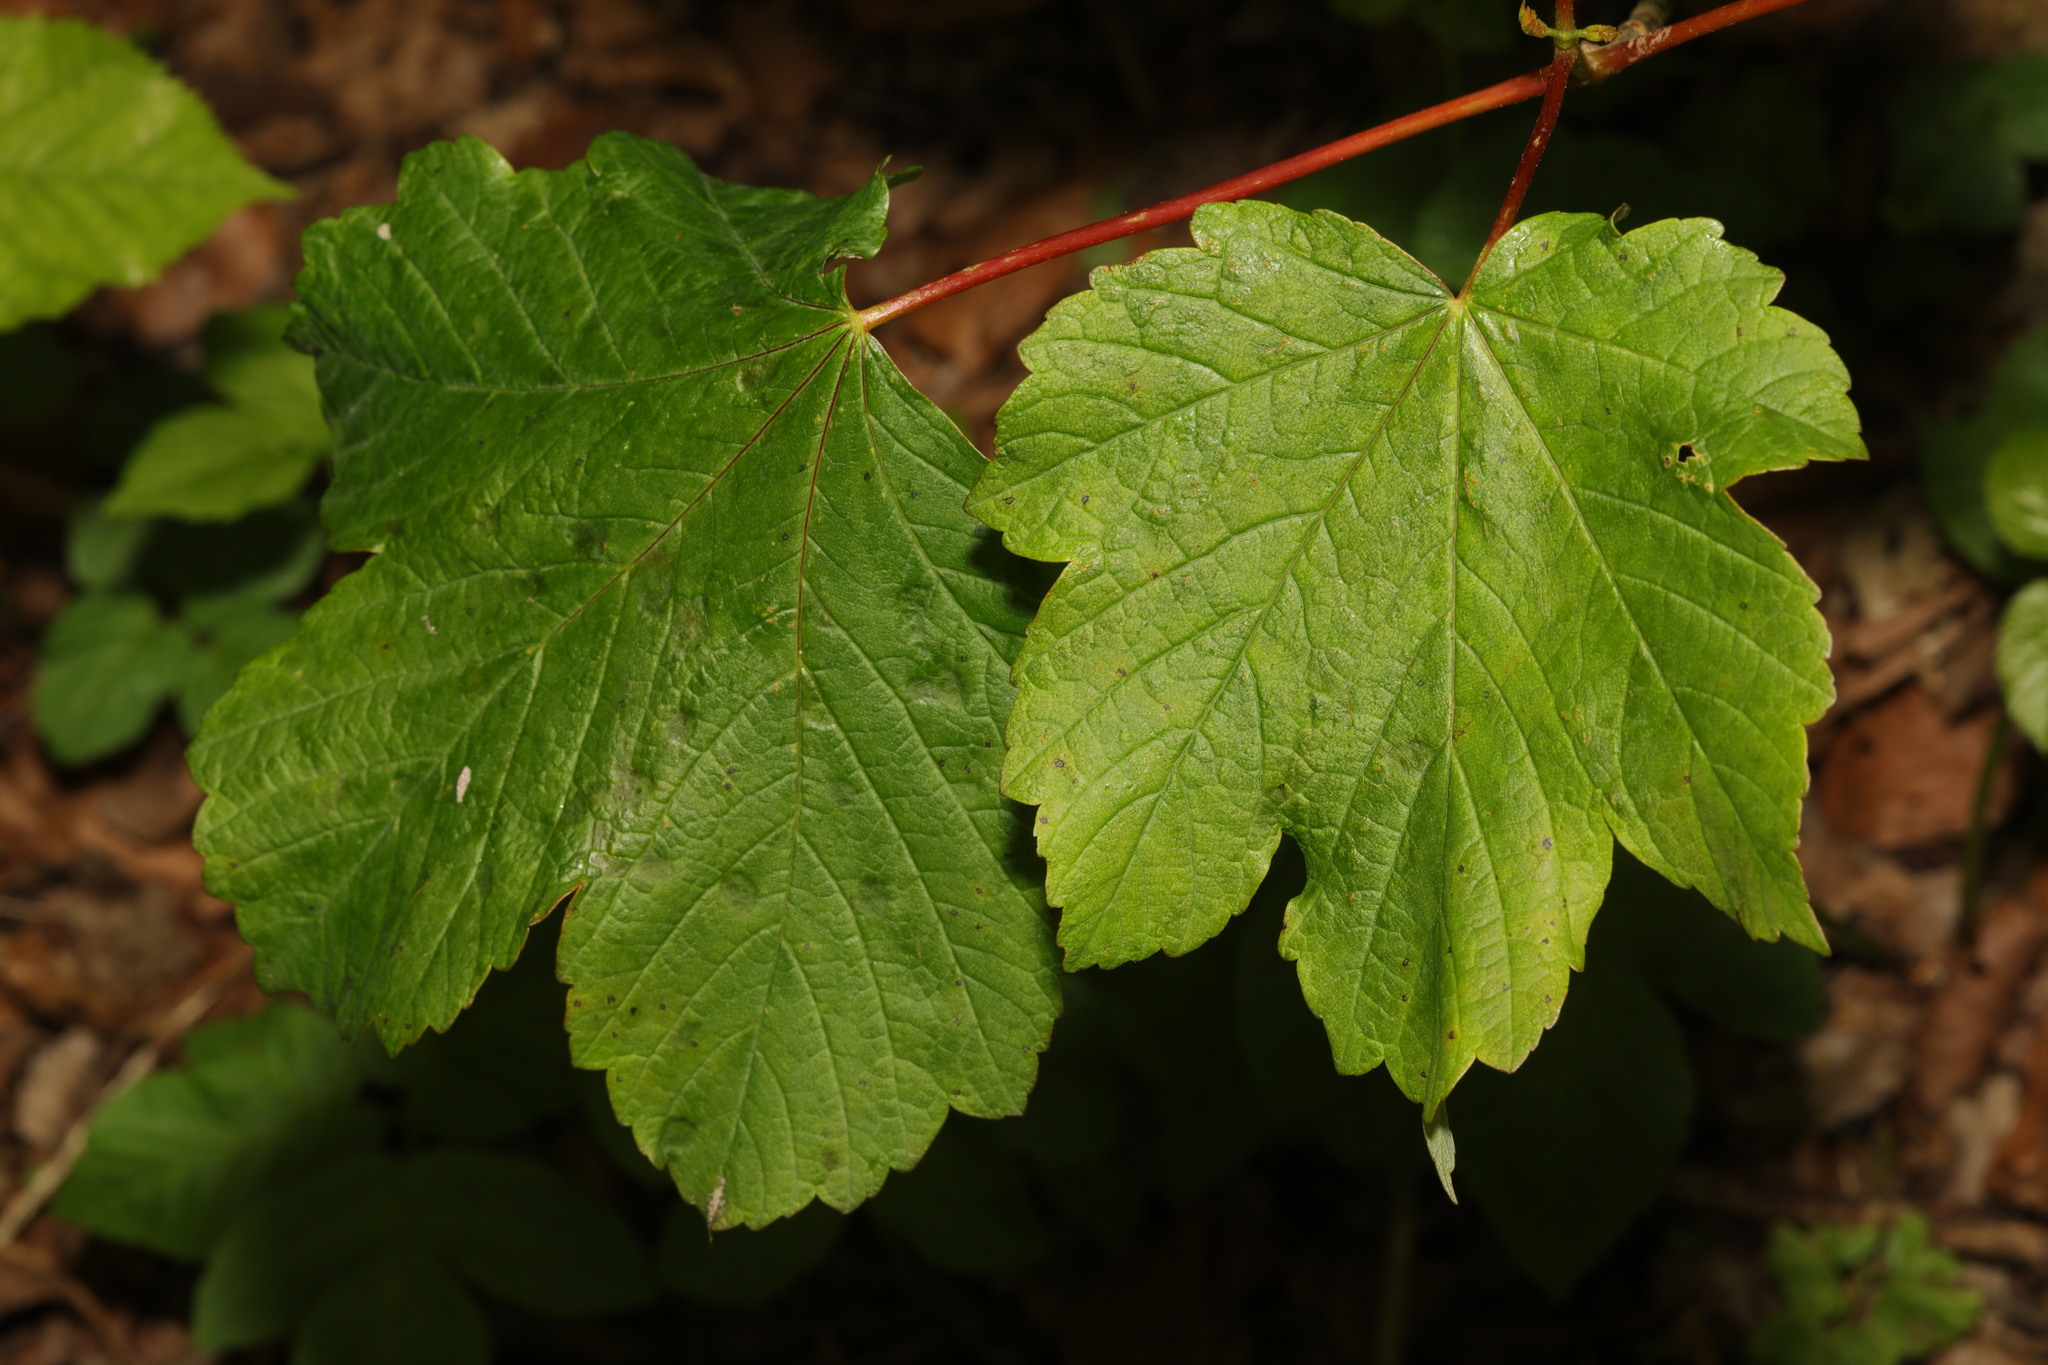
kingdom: Plantae
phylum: Tracheophyta
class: Magnoliopsida
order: Sapindales
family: Sapindaceae
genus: Acer
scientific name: Acer pseudoplatanus
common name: Sycamore
